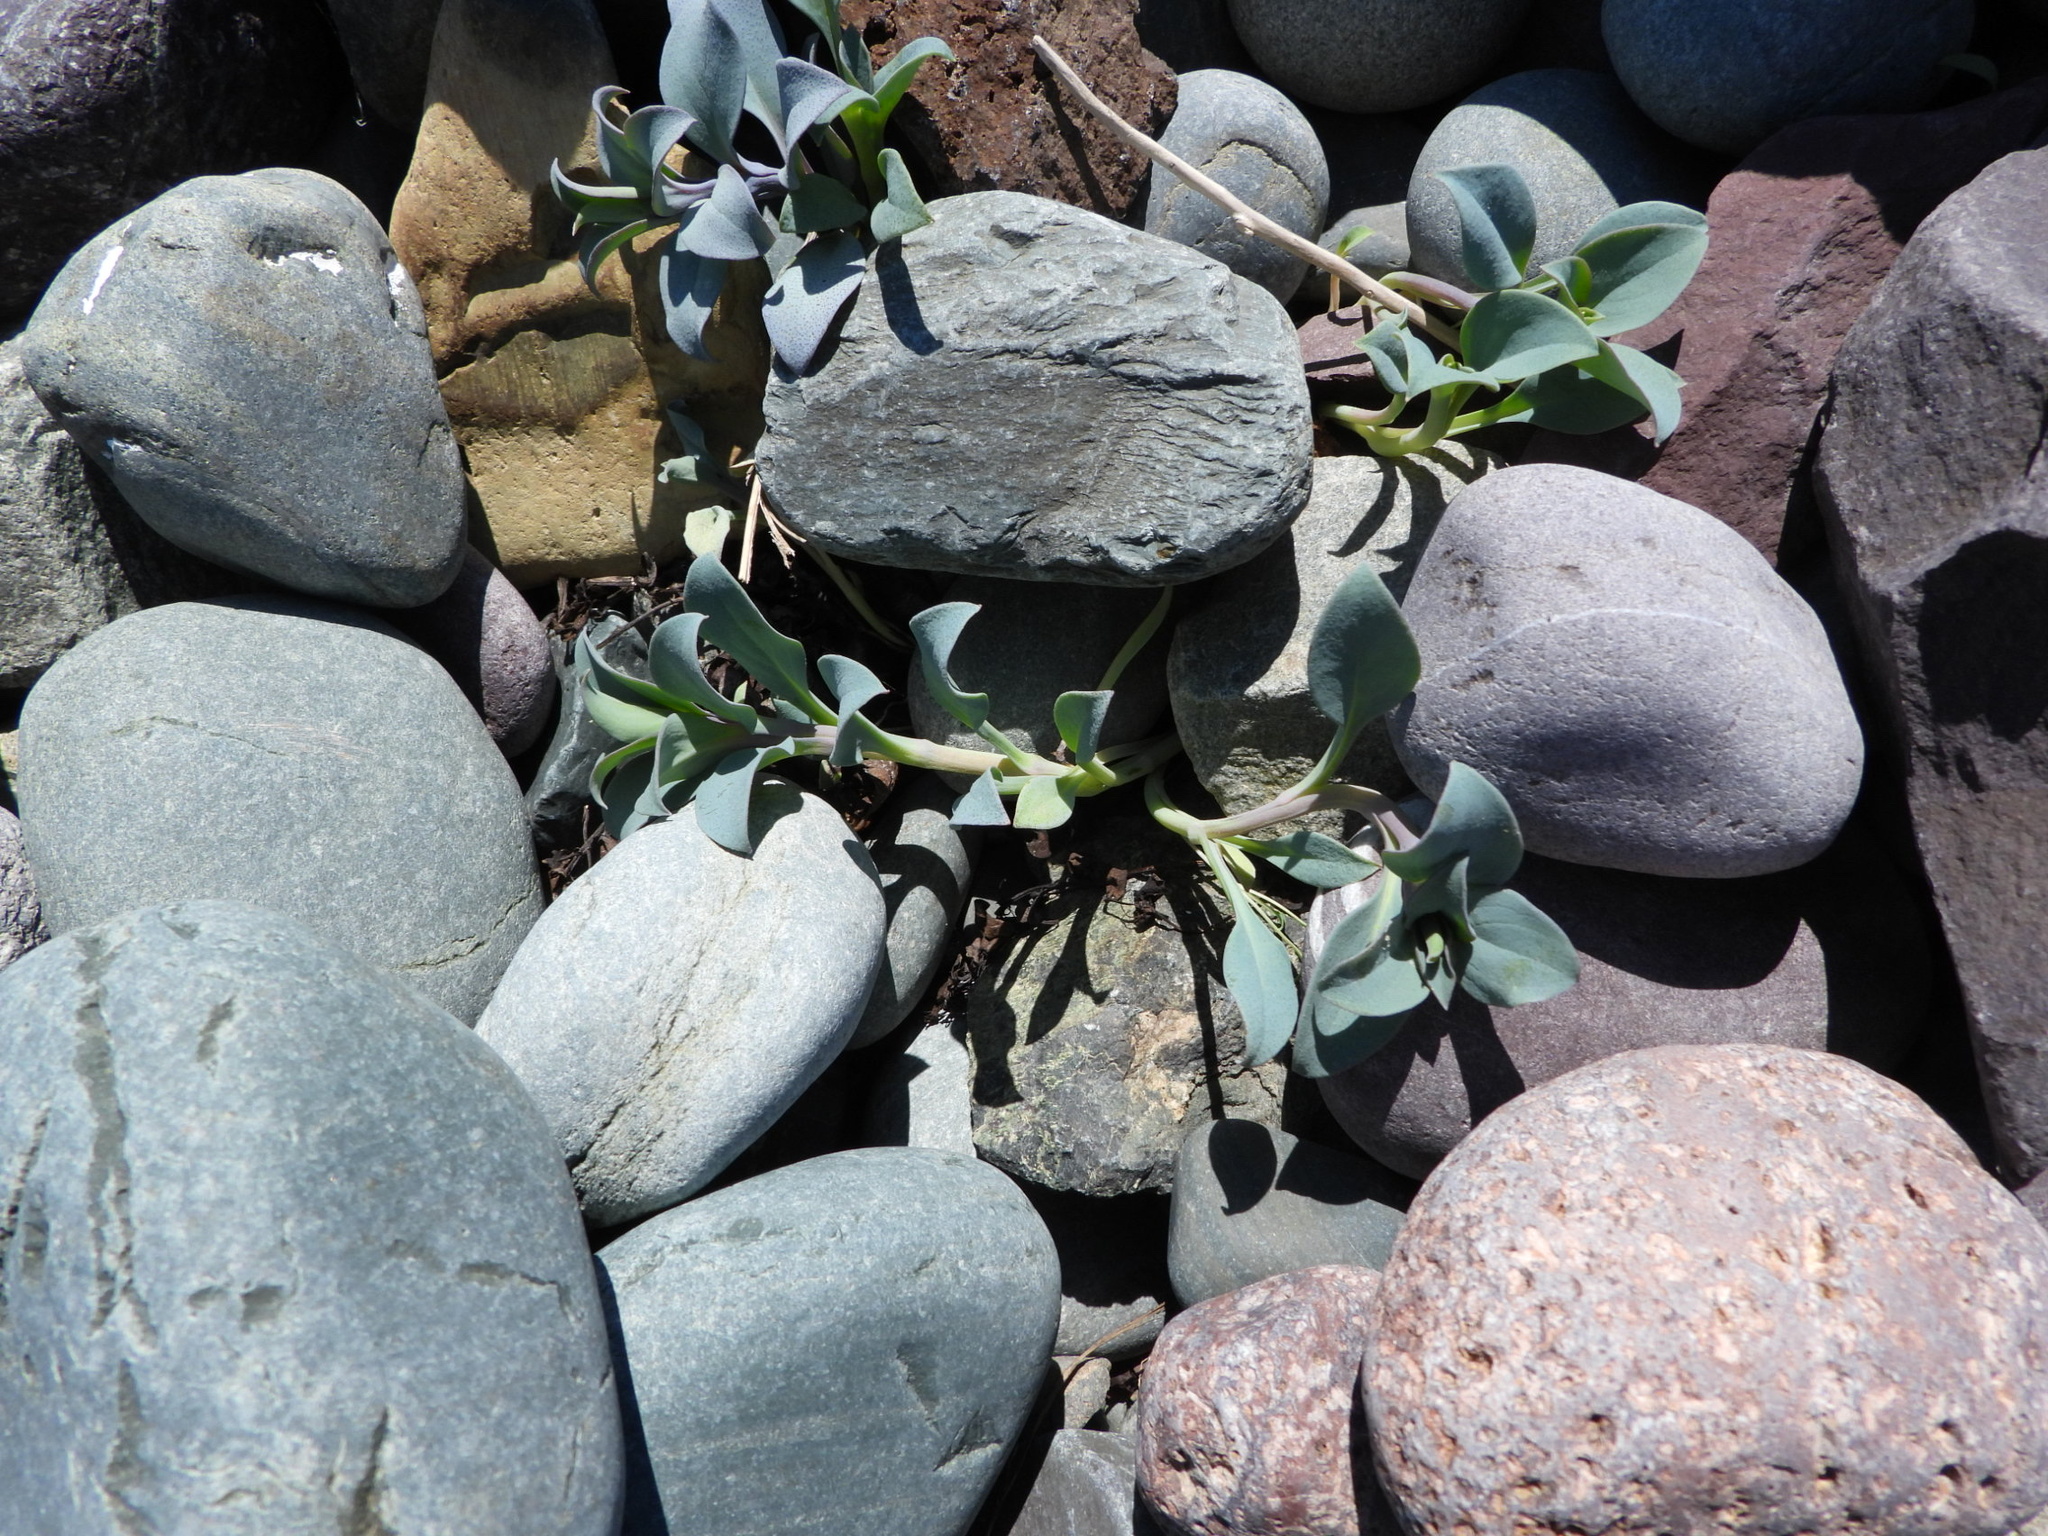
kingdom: Plantae
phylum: Tracheophyta
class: Magnoliopsida
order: Boraginales
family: Boraginaceae
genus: Mertensia
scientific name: Mertensia maritima
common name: Oysterplant
